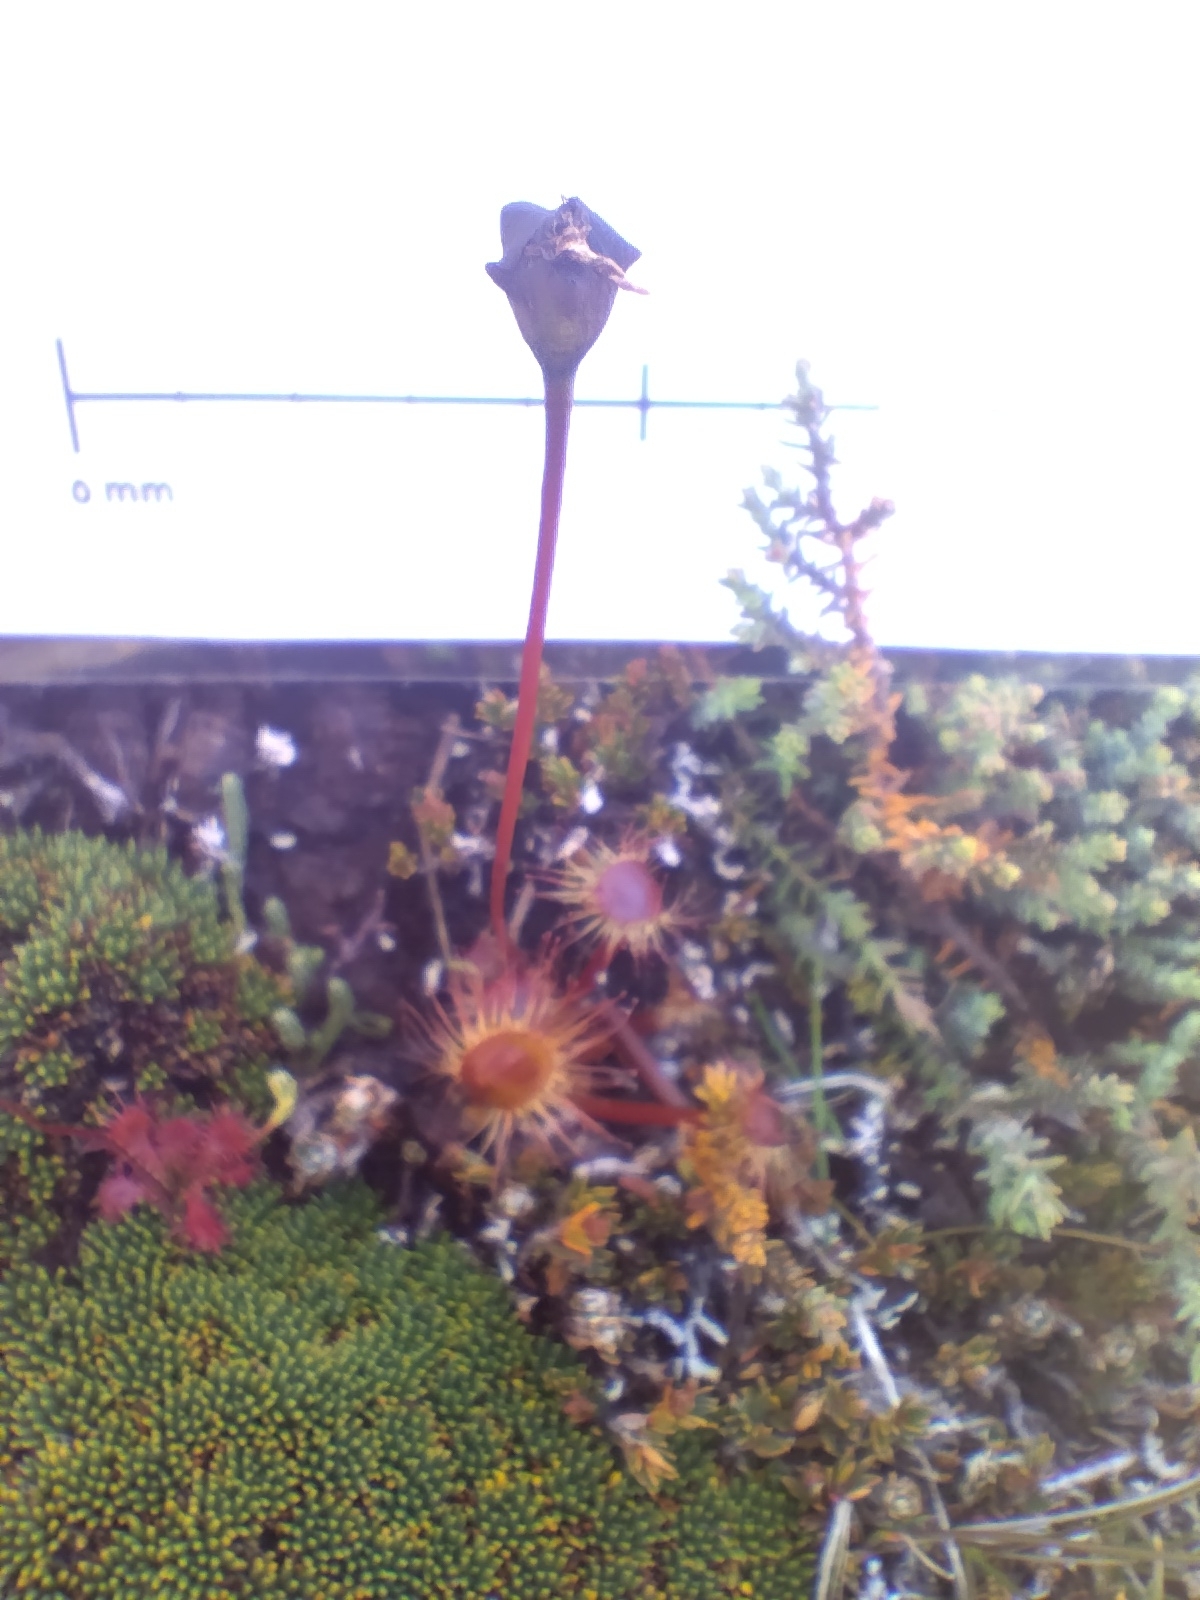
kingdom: Plantae
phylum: Tracheophyta
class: Magnoliopsida
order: Caryophyllales
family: Droseraceae
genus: Drosera
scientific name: Drosera stenopetala
